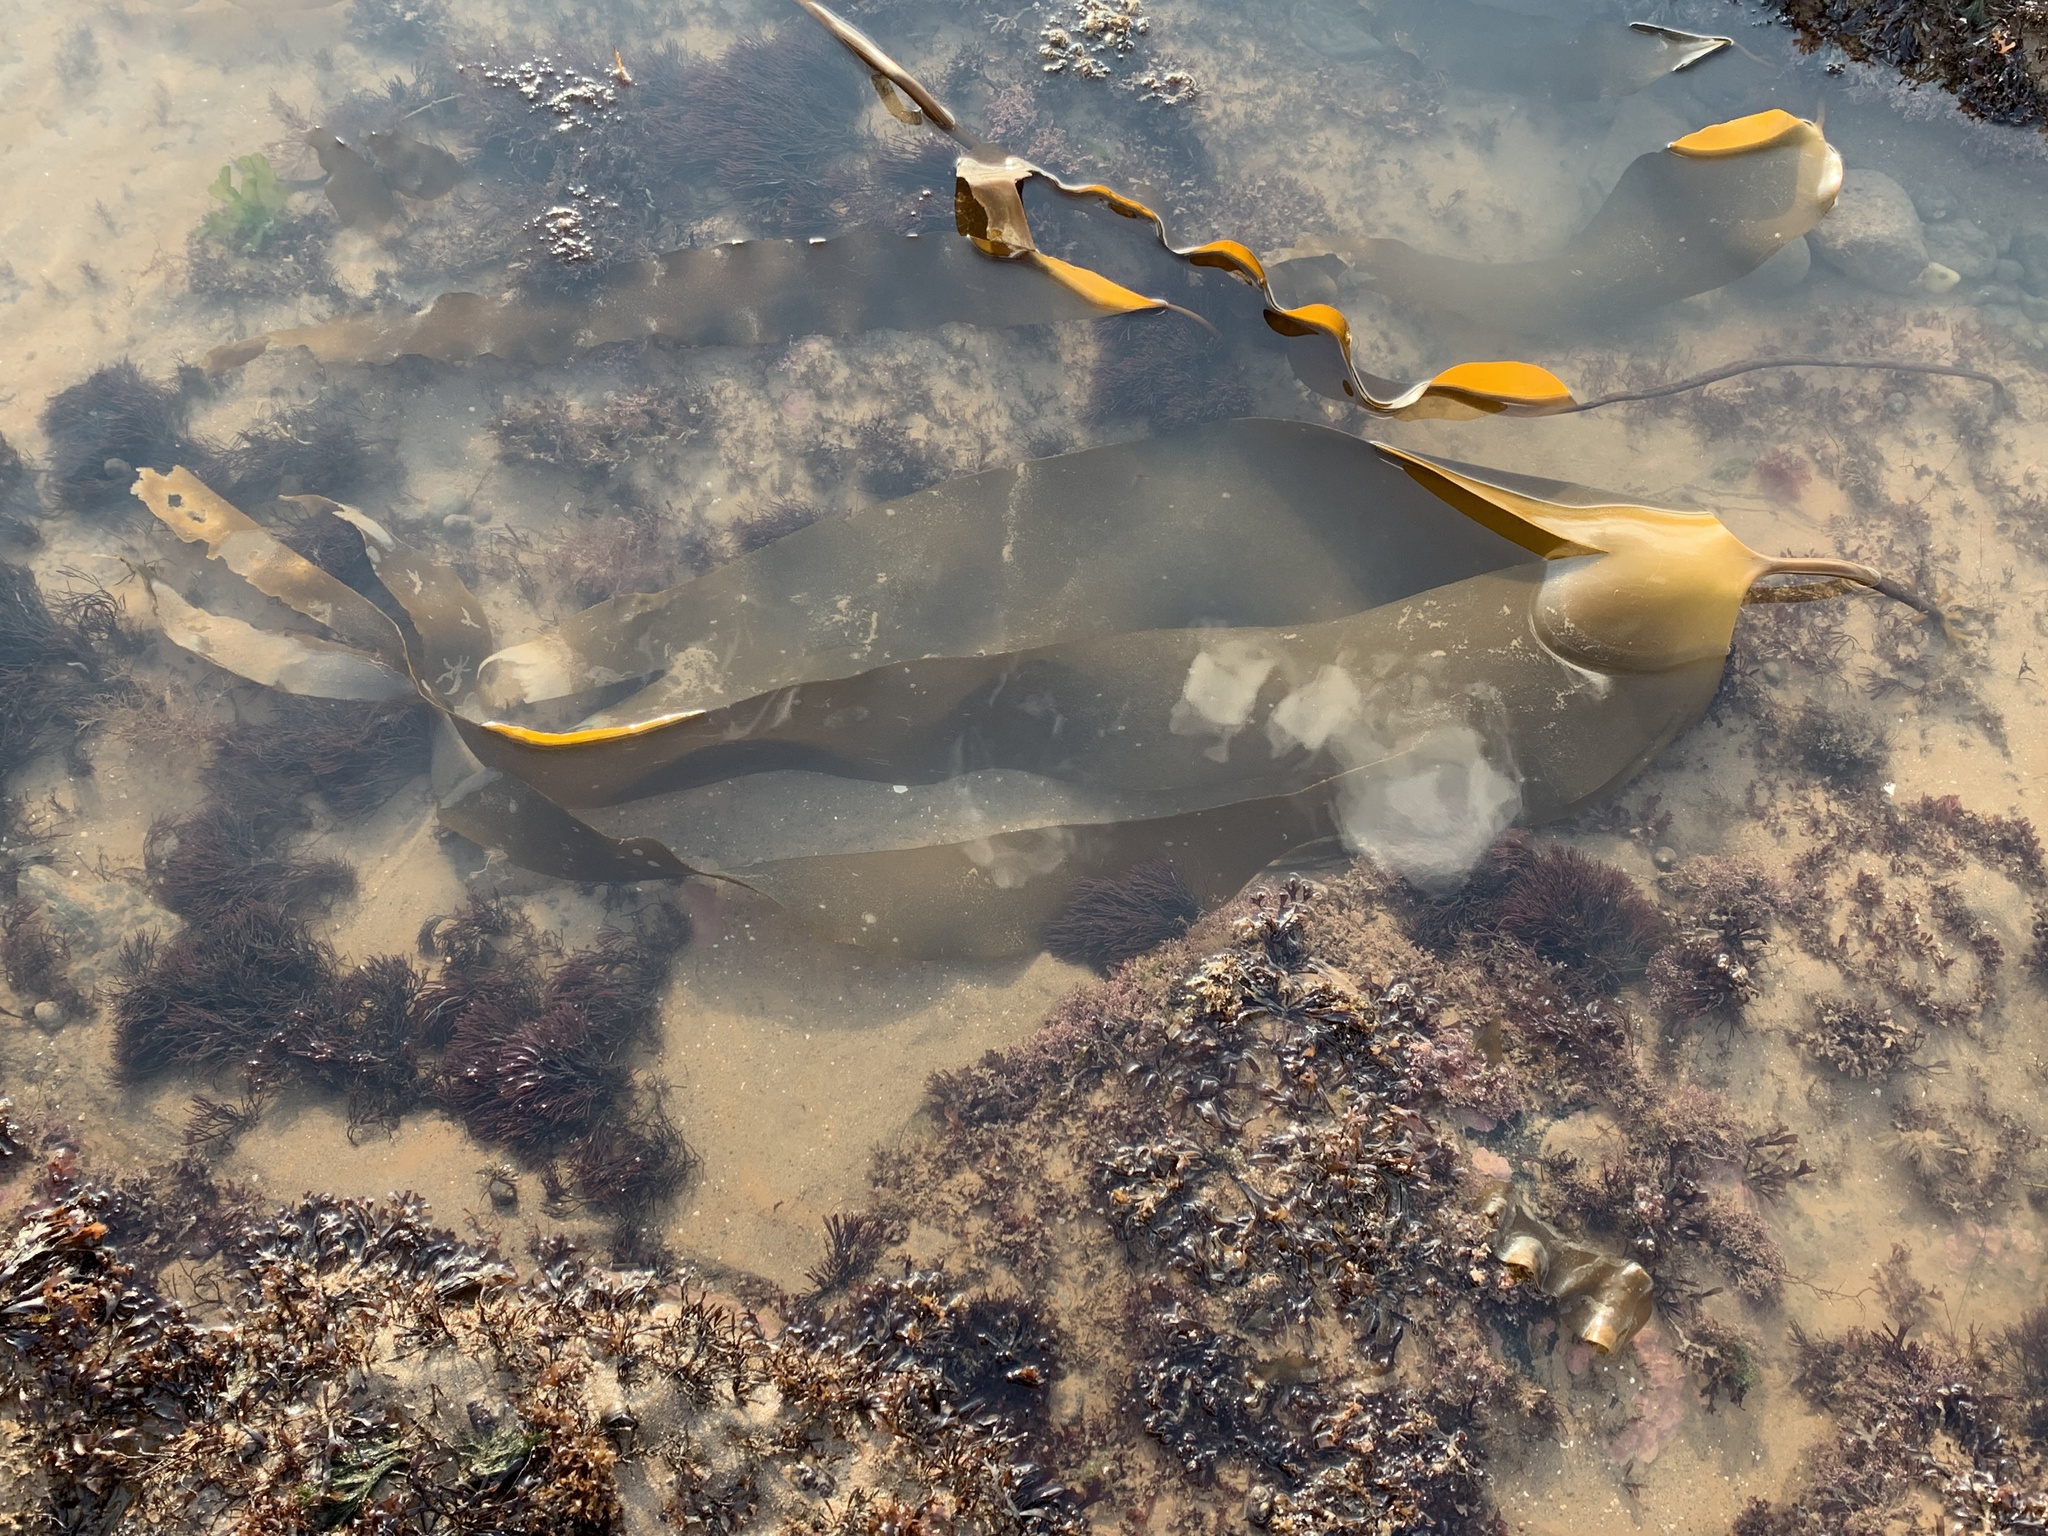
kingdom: Chromista
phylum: Ochrophyta
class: Phaeophyceae
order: Laminariales
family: Laminariaceae
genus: Laminaria
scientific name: Laminaria digitata
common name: Oarweed
